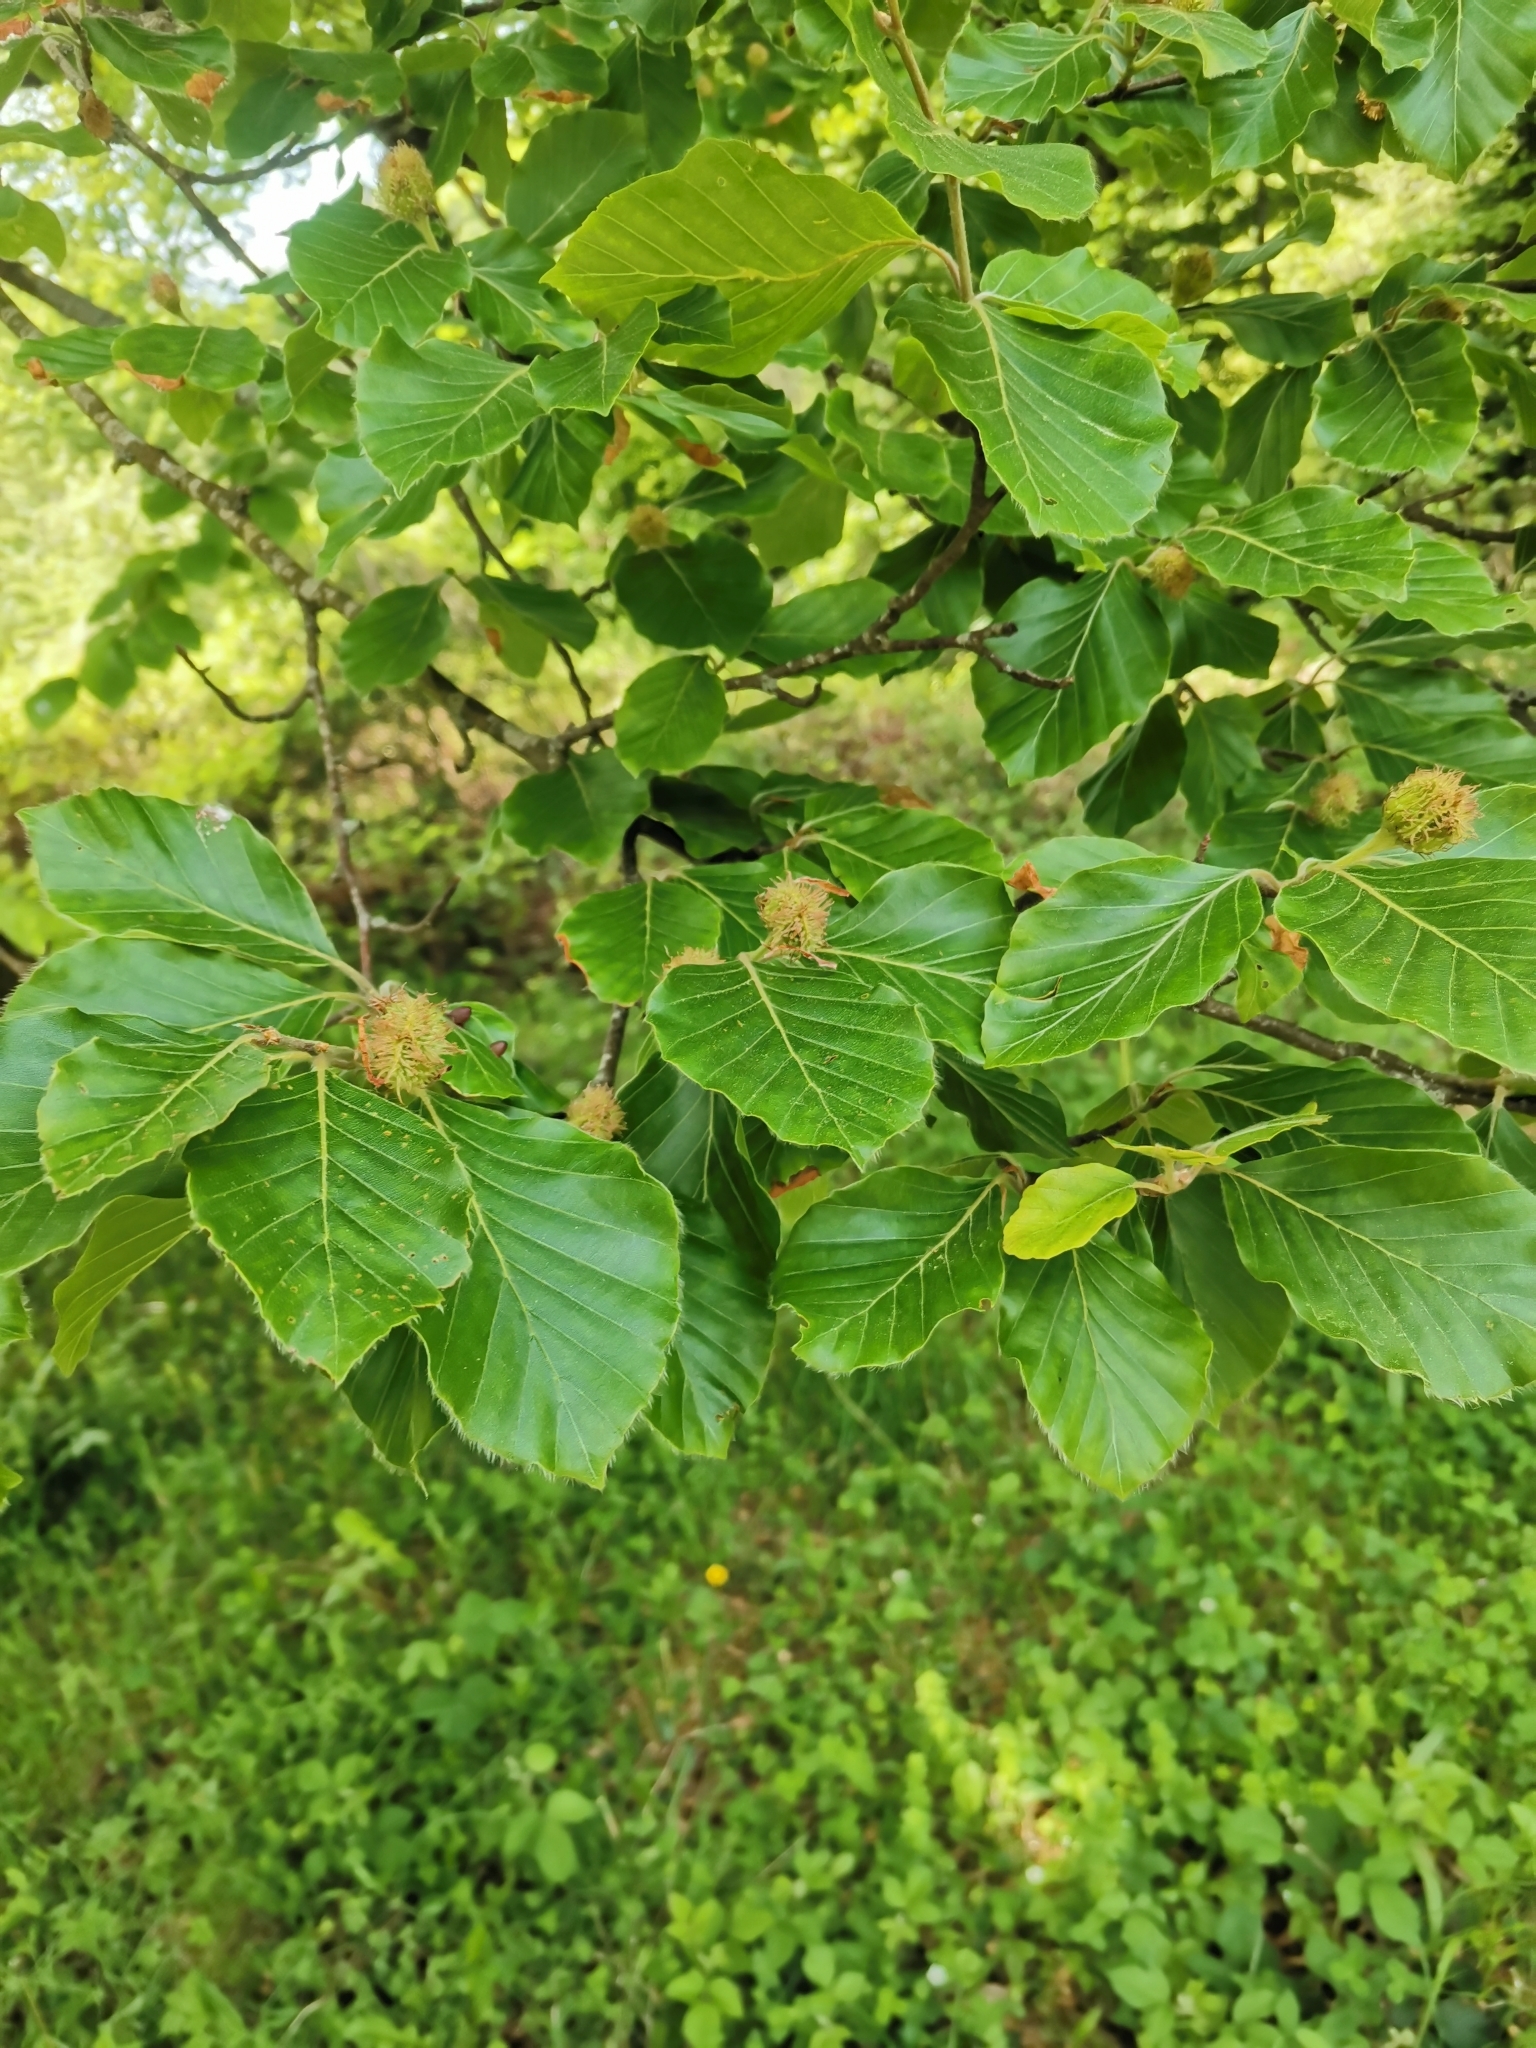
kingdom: Plantae
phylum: Tracheophyta
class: Magnoliopsida
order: Fagales
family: Fagaceae
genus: Fagus
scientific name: Fagus sylvatica
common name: Beech
